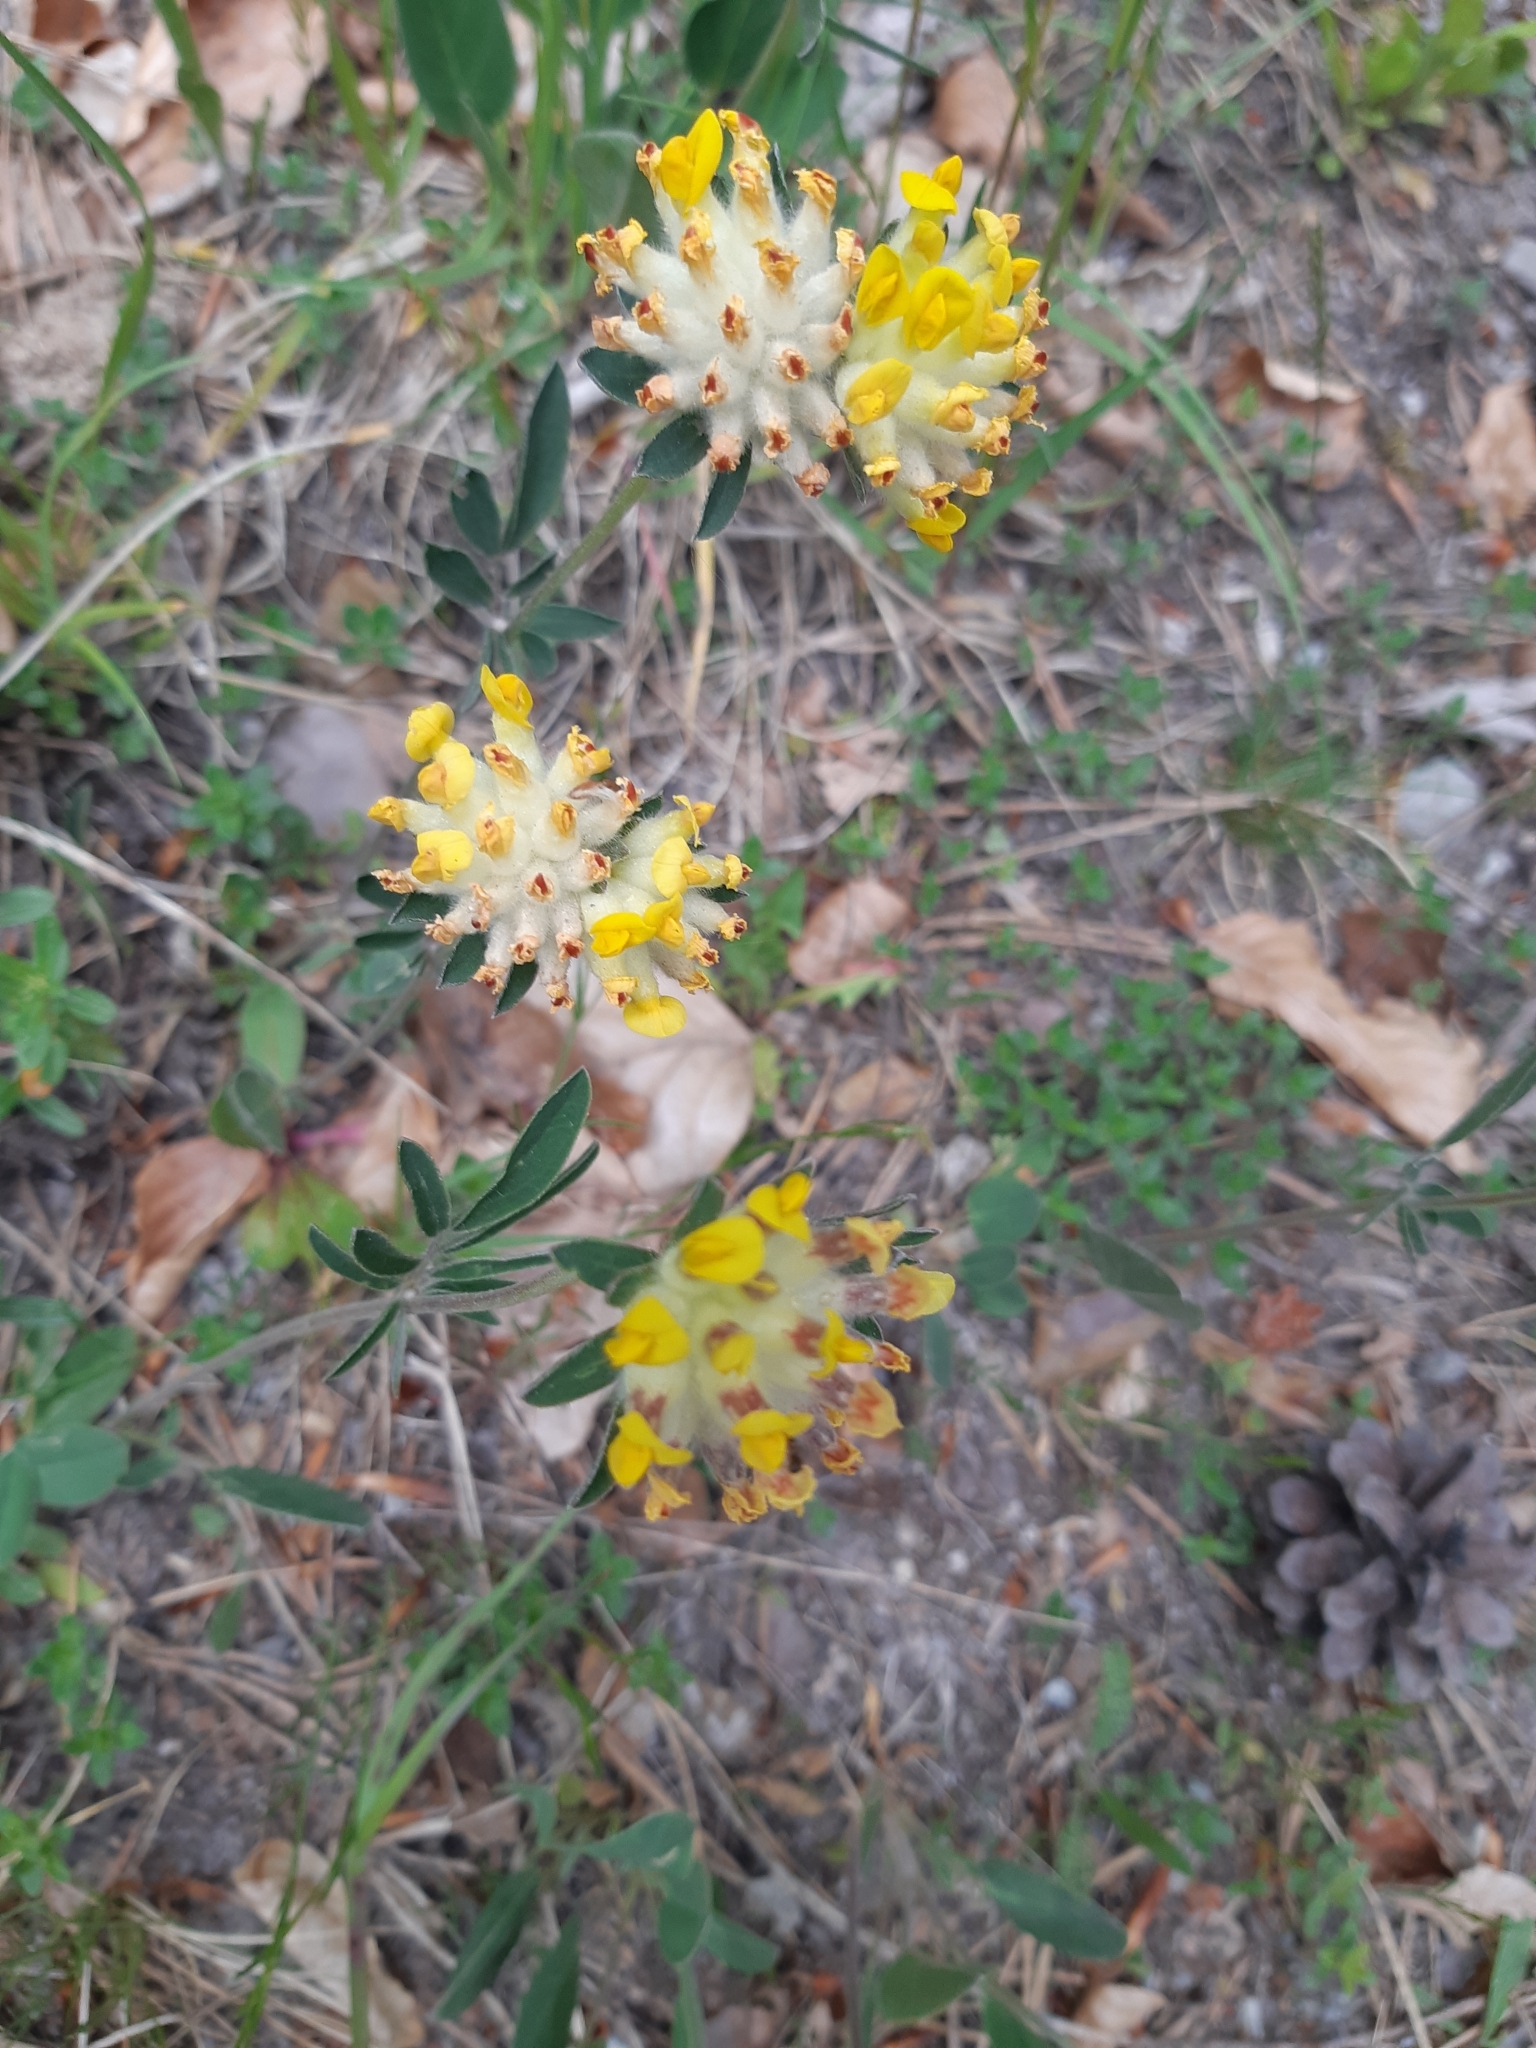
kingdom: Plantae
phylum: Tracheophyta
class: Magnoliopsida
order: Fabales
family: Fabaceae
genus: Anthyllis
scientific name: Anthyllis vulneraria
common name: Kidney vetch
